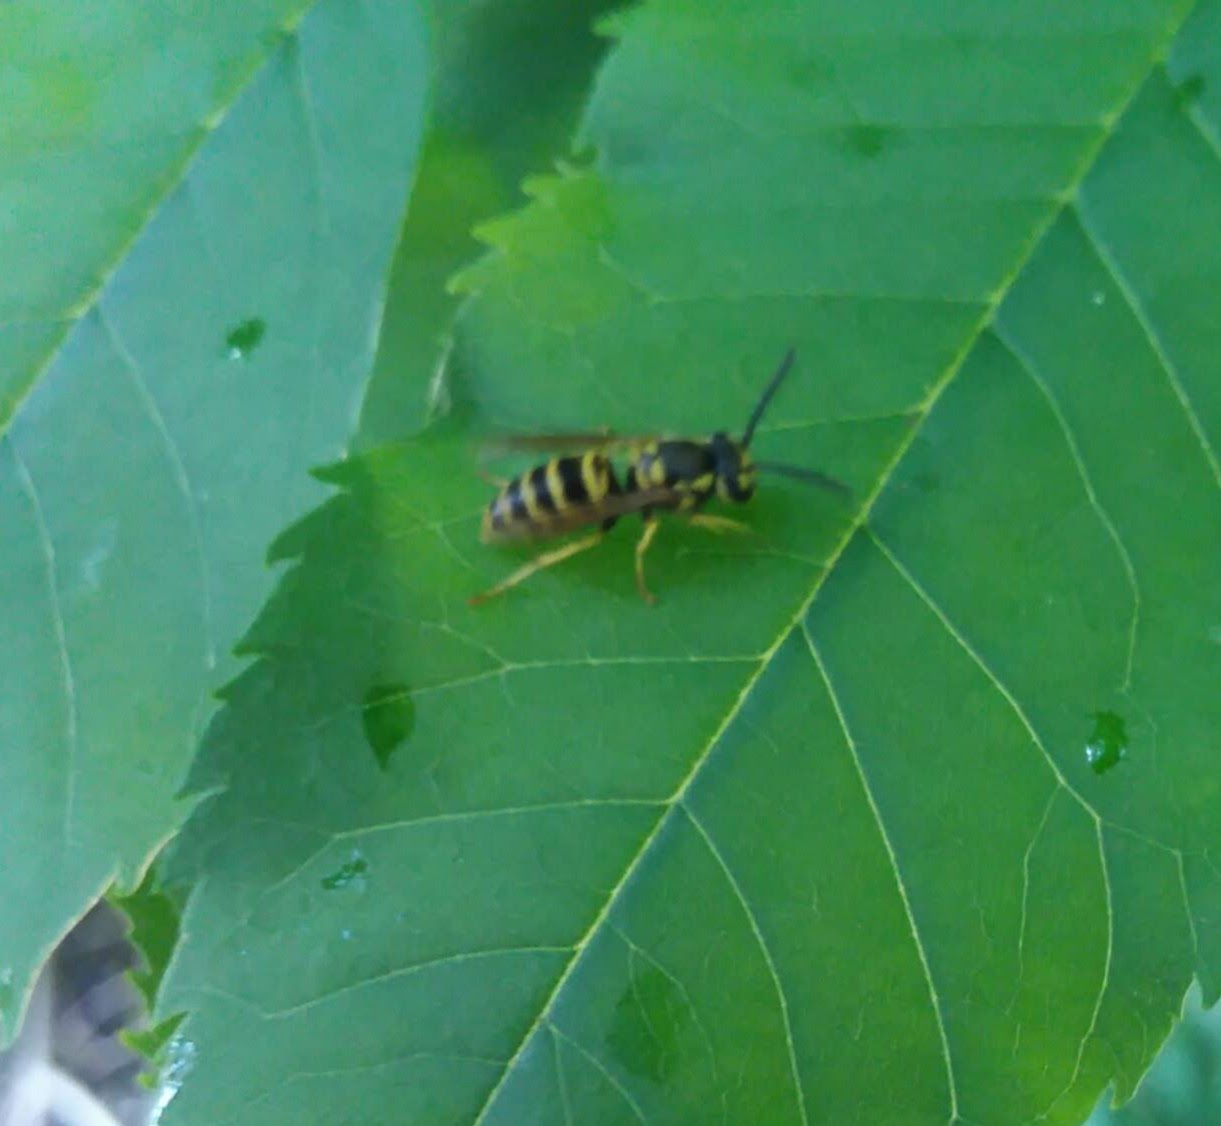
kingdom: Animalia
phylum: Arthropoda
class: Insecta
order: Hymenoptera
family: Vespidae
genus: Vespula
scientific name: Vespula maculifrons
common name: Eastern yellowjacket
